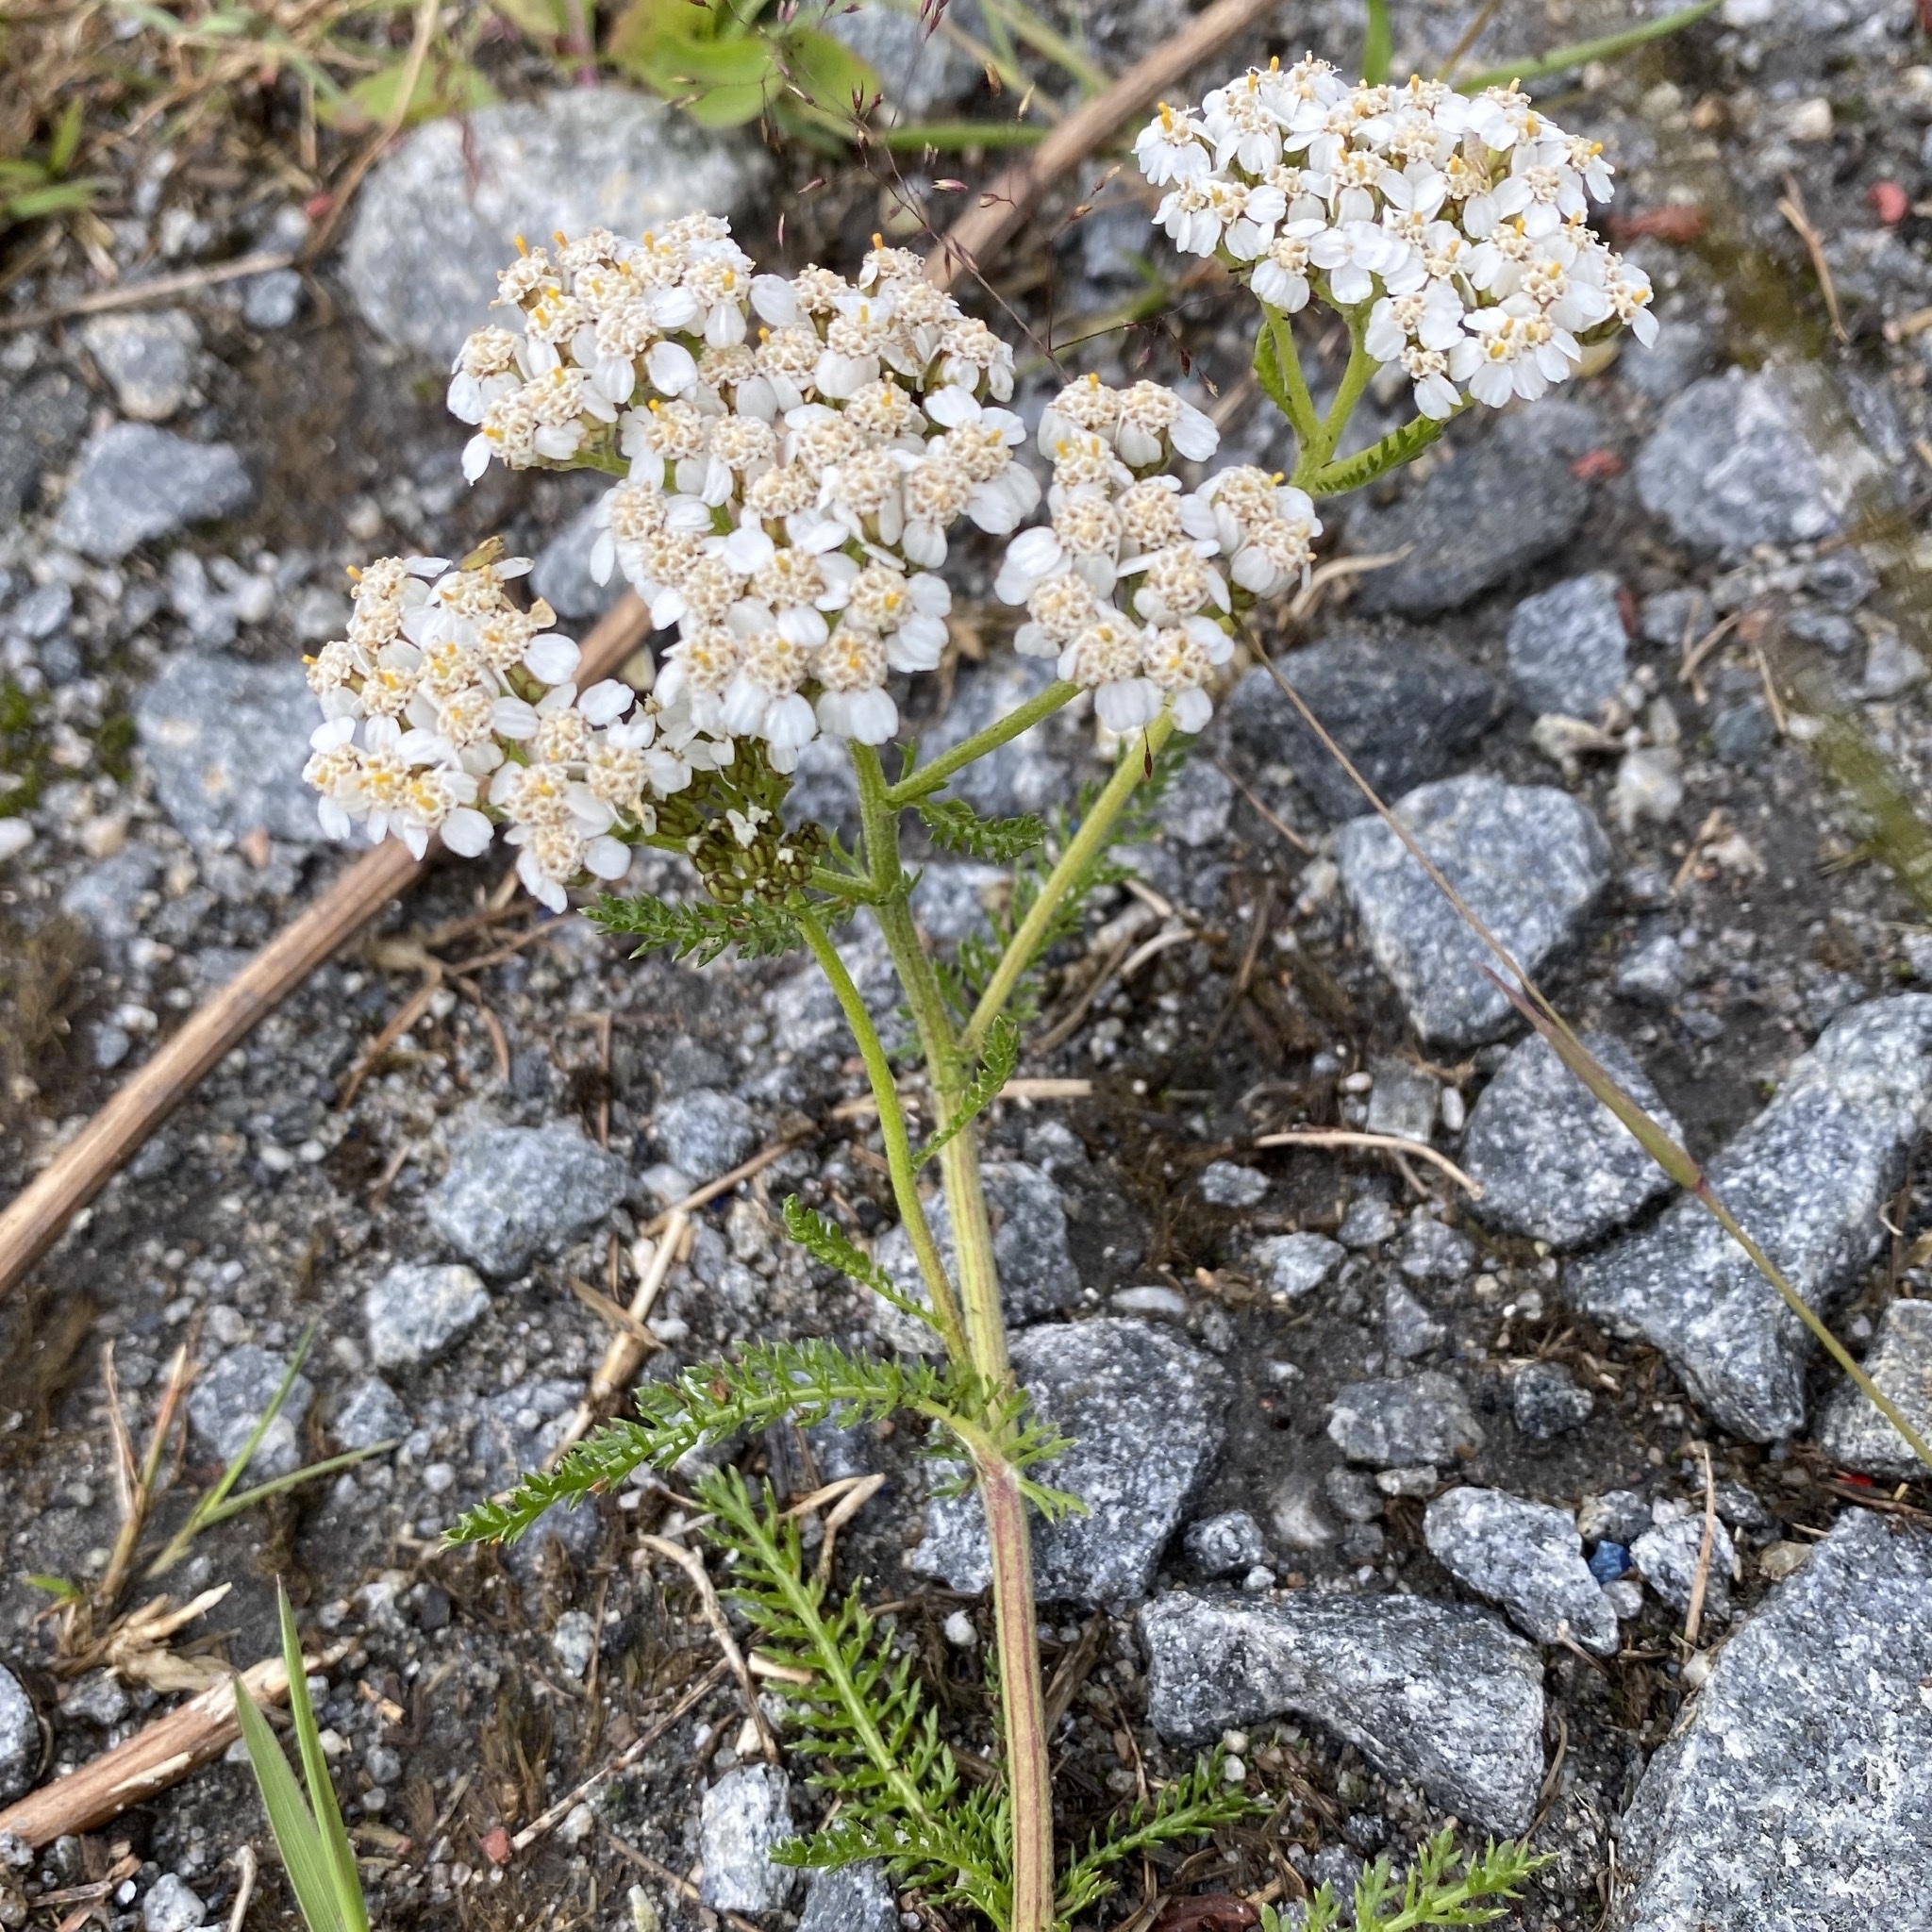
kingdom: Plantae
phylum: Tracheophyta
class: Magnoliopsida
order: Asterales
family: Asteraceae
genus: Achillea
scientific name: Achillea millefolium
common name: Yarrow
